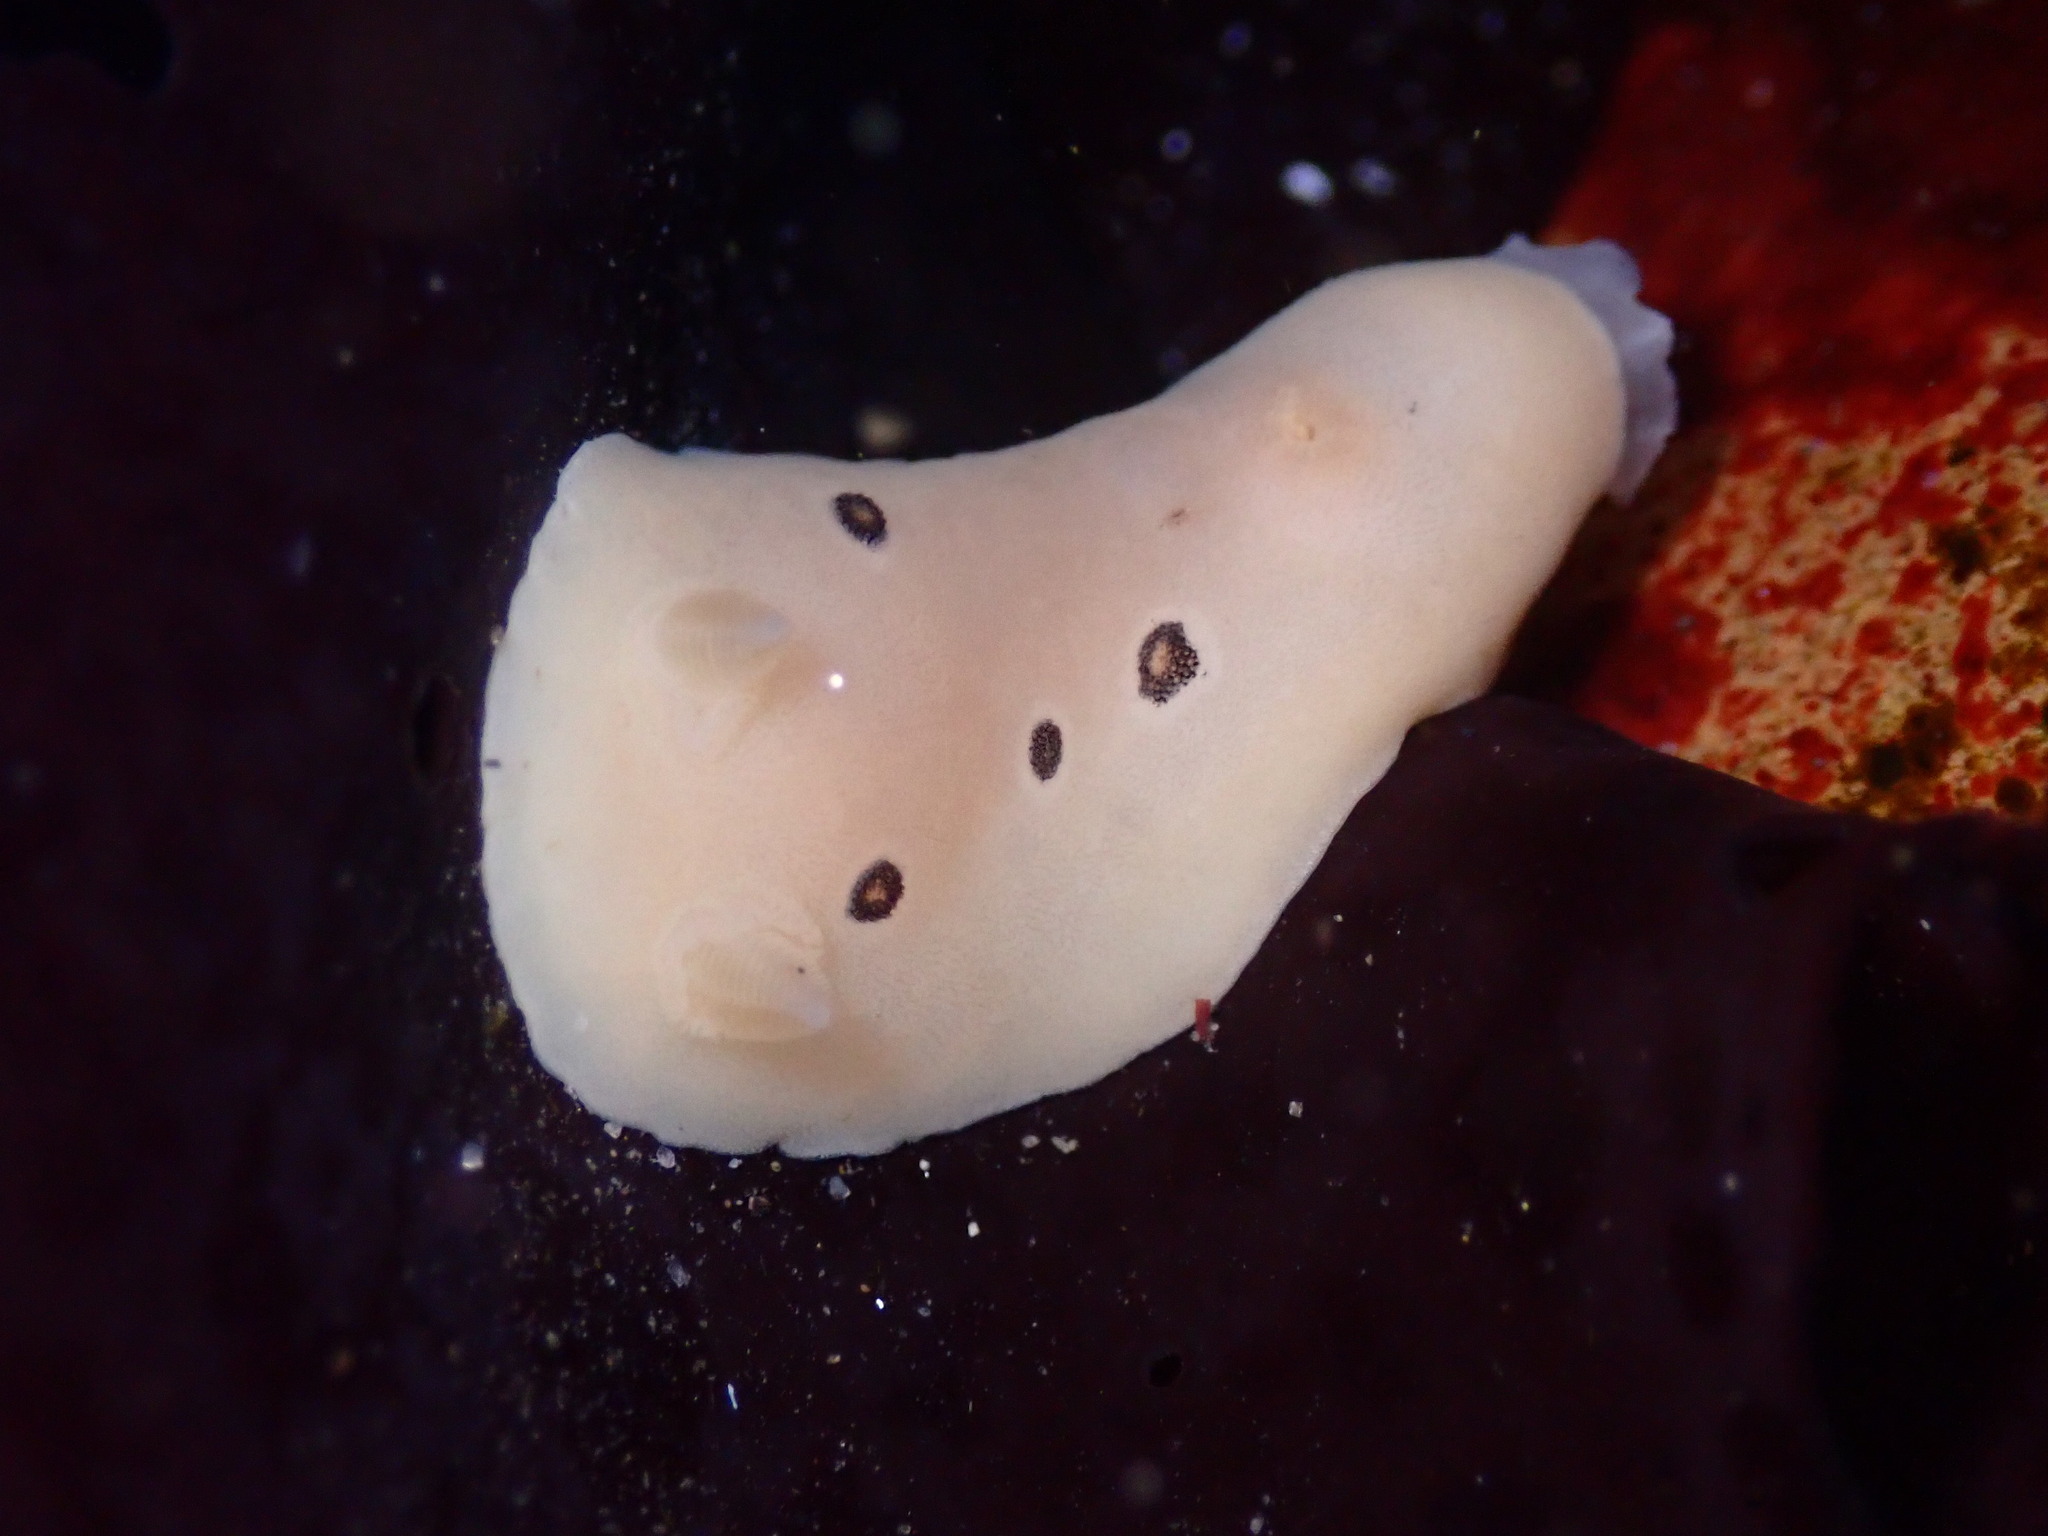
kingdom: Animalia
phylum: Mollusca
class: Gastropoda
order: Nudibranchia
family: Discodorididae
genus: Diaulula
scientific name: Diaulula sandiegensis
